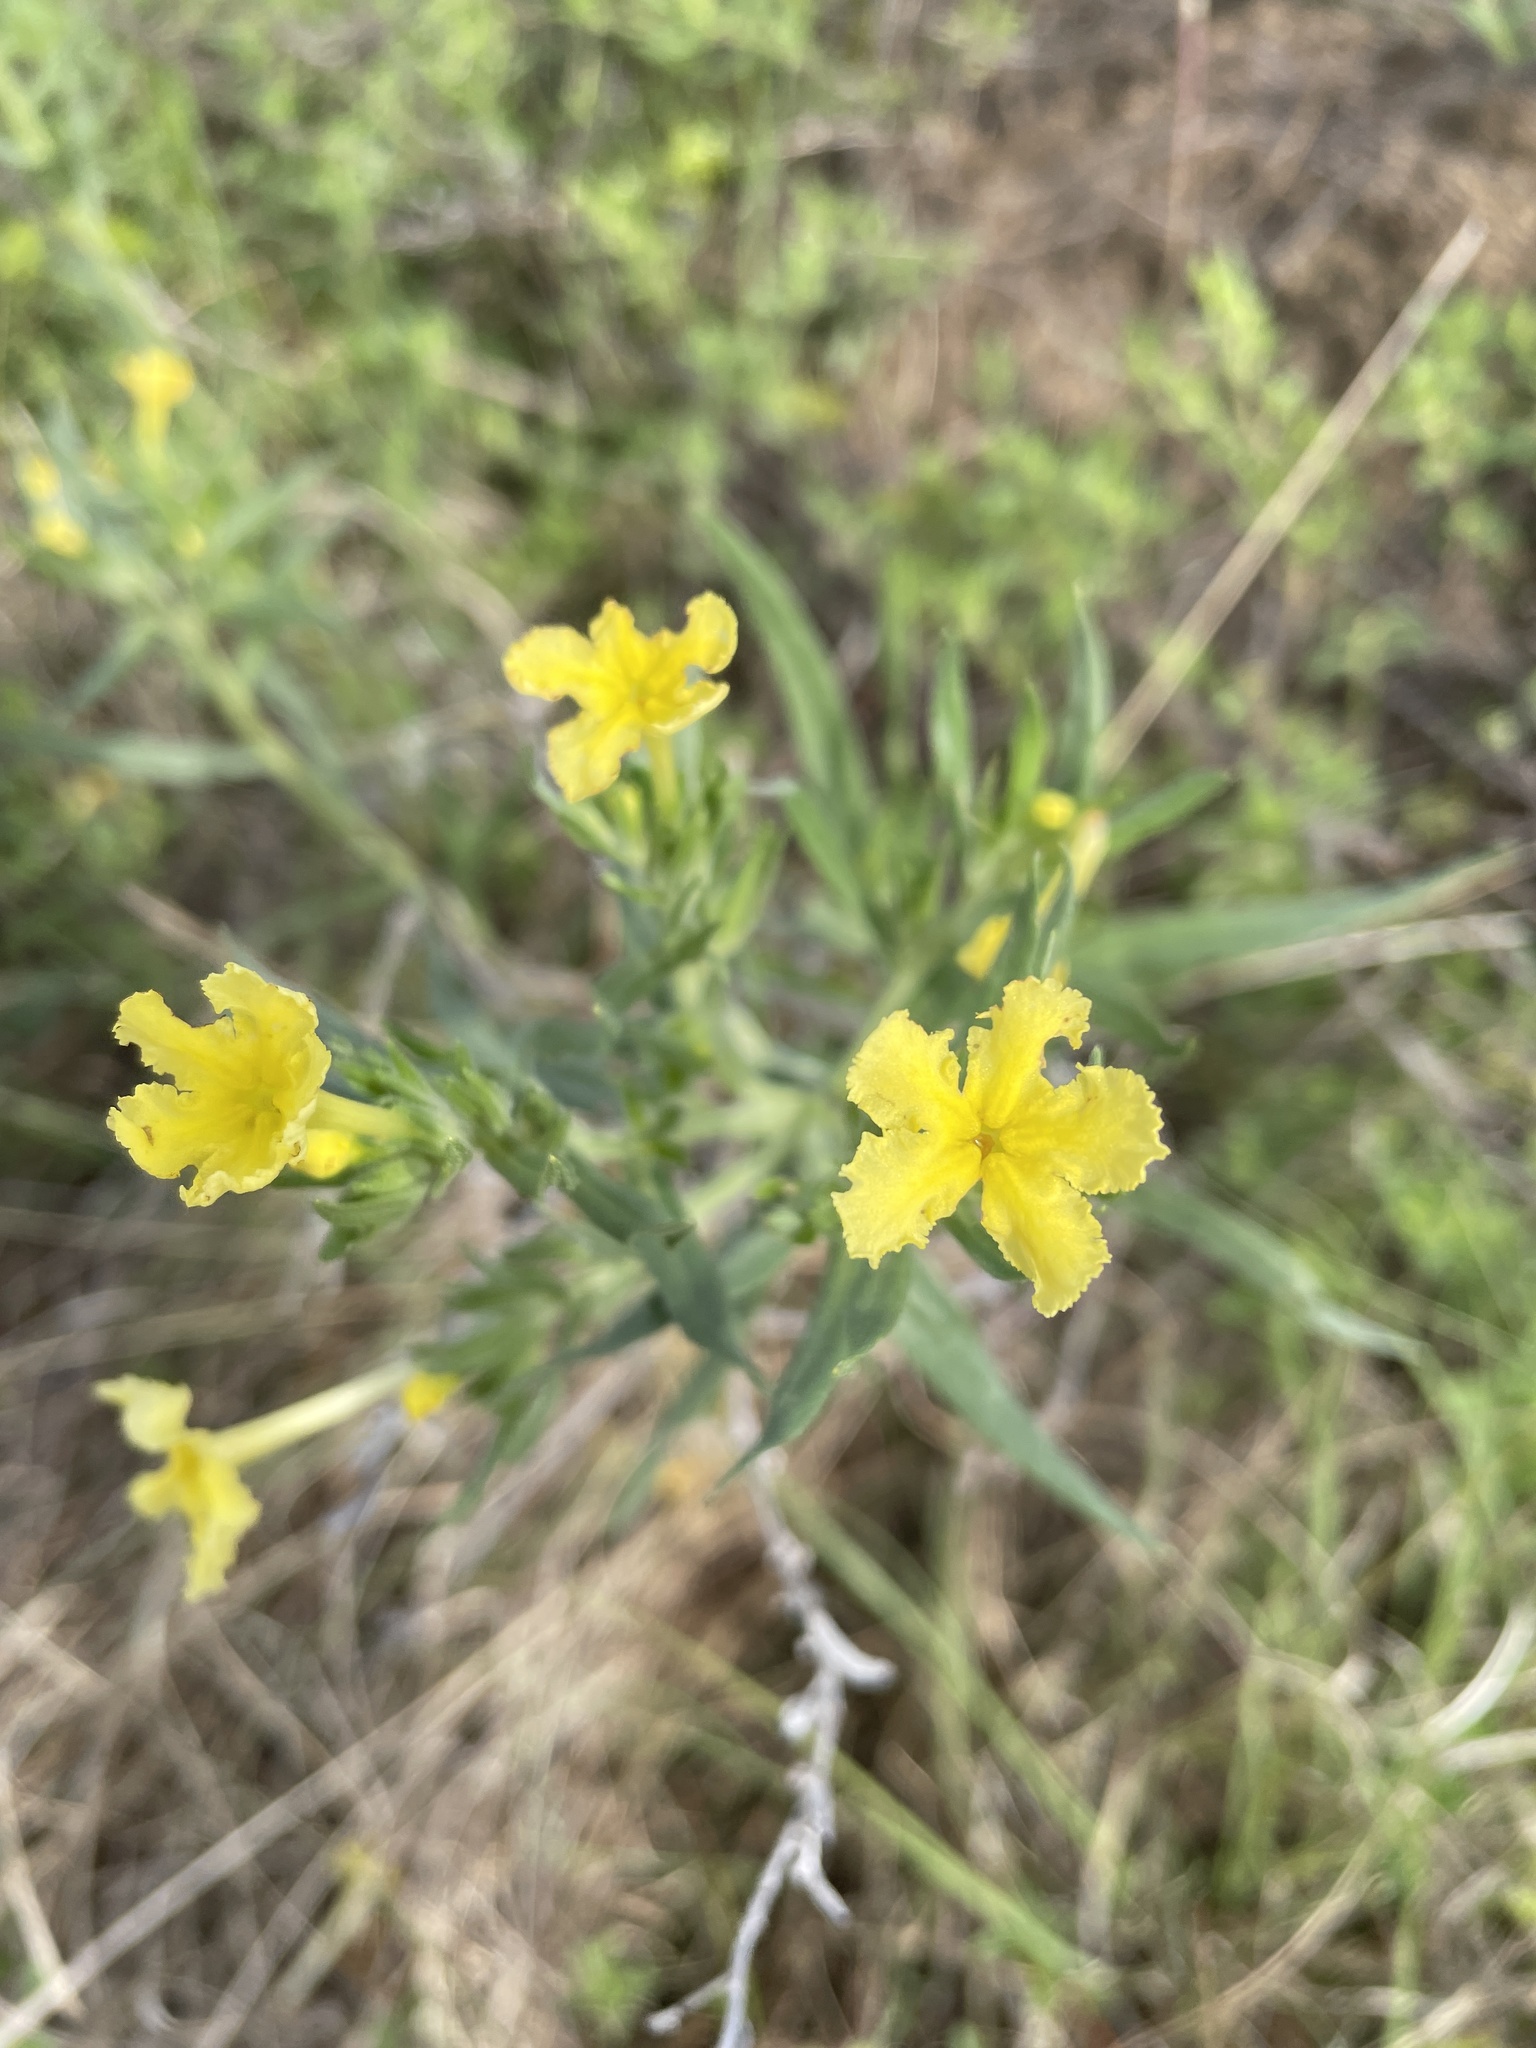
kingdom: Plantae
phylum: Tracheophyta
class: Magnoliopsida
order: Boraginales
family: Boraginaceae
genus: Lithospermum
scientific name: Lithospermum incisum
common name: Fringed gromwell
